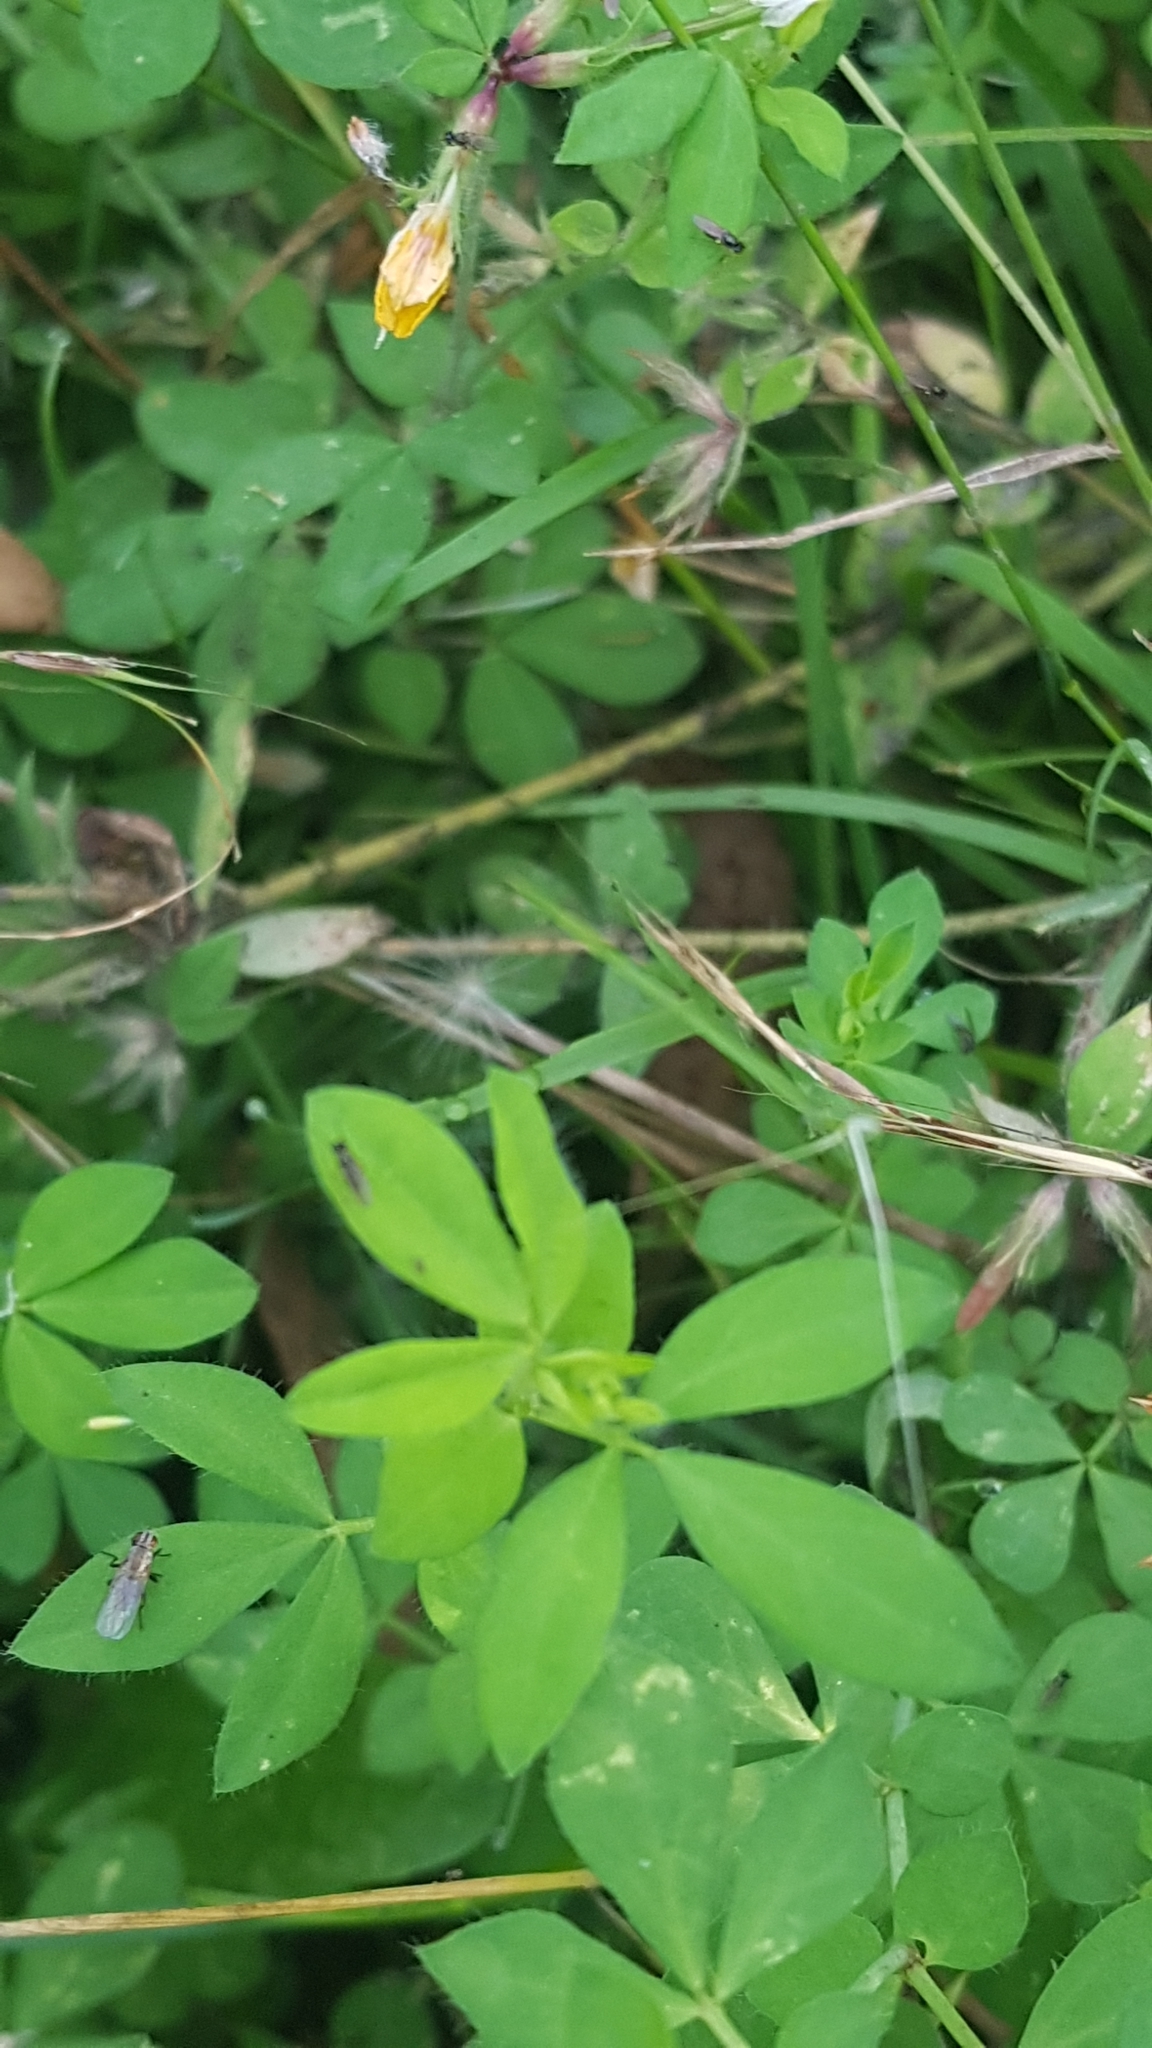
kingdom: Plantae
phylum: Tracheophyta
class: Magnoliopsida
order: Fabales
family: Fabaceae
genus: Lotus
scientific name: Lotus pedunculatus
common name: Greater birdsfoot-trefoil
